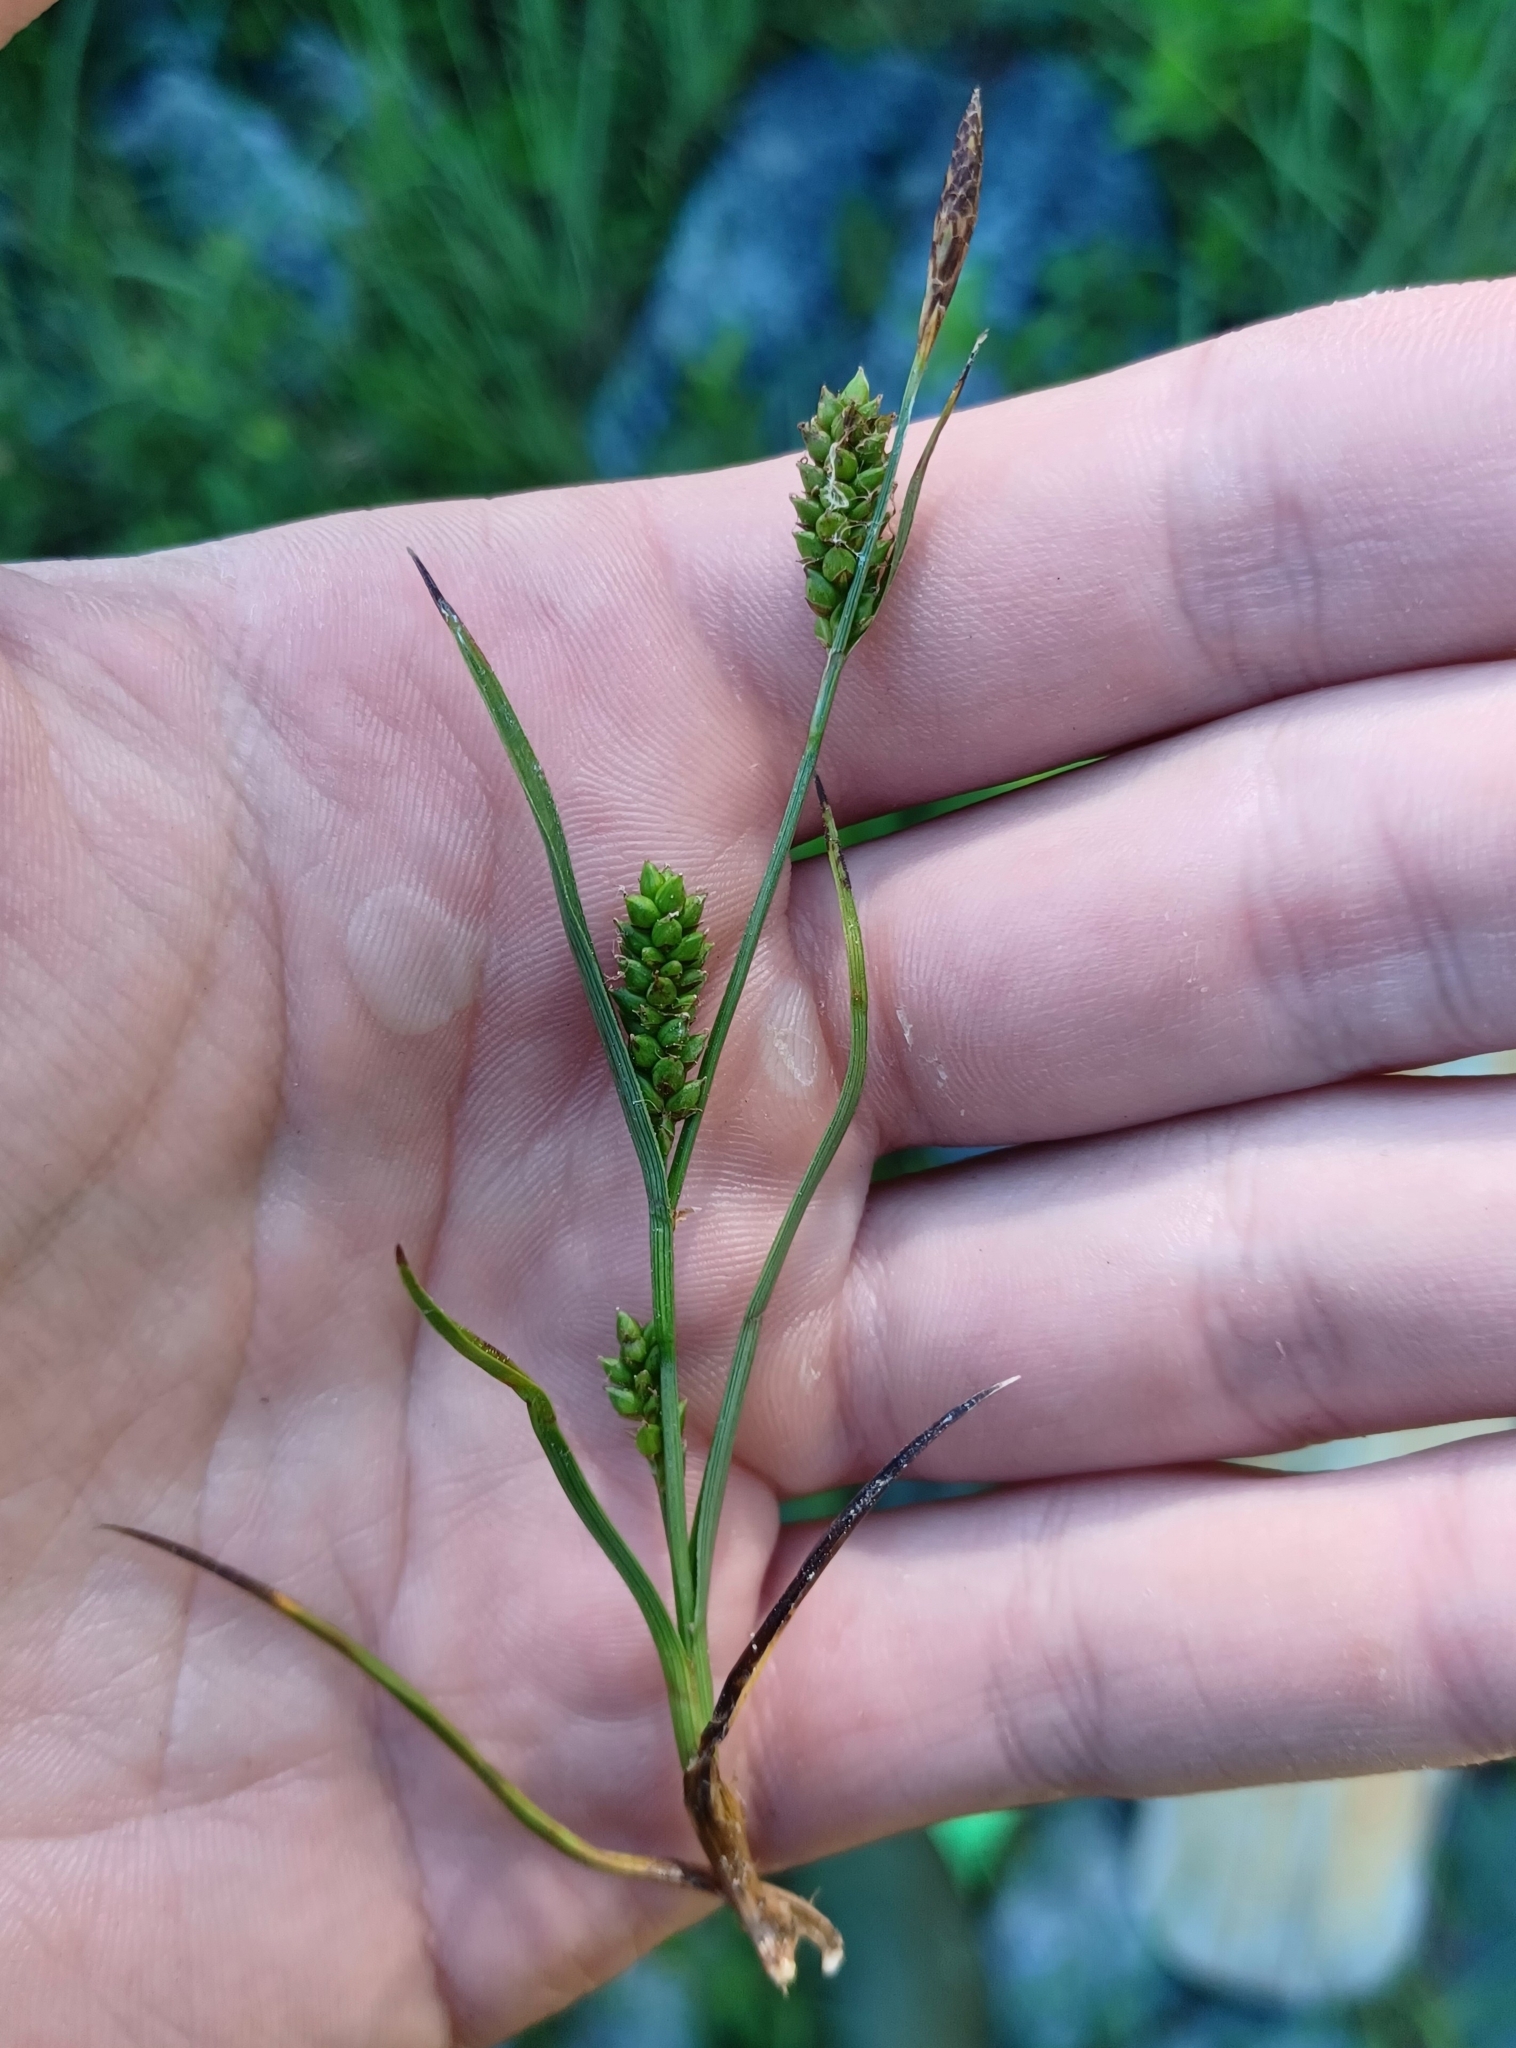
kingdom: Plantae
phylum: Tracheophyta
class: Liliopsida
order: Poales
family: Cyperaceae
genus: Carex
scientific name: Carex crawei
